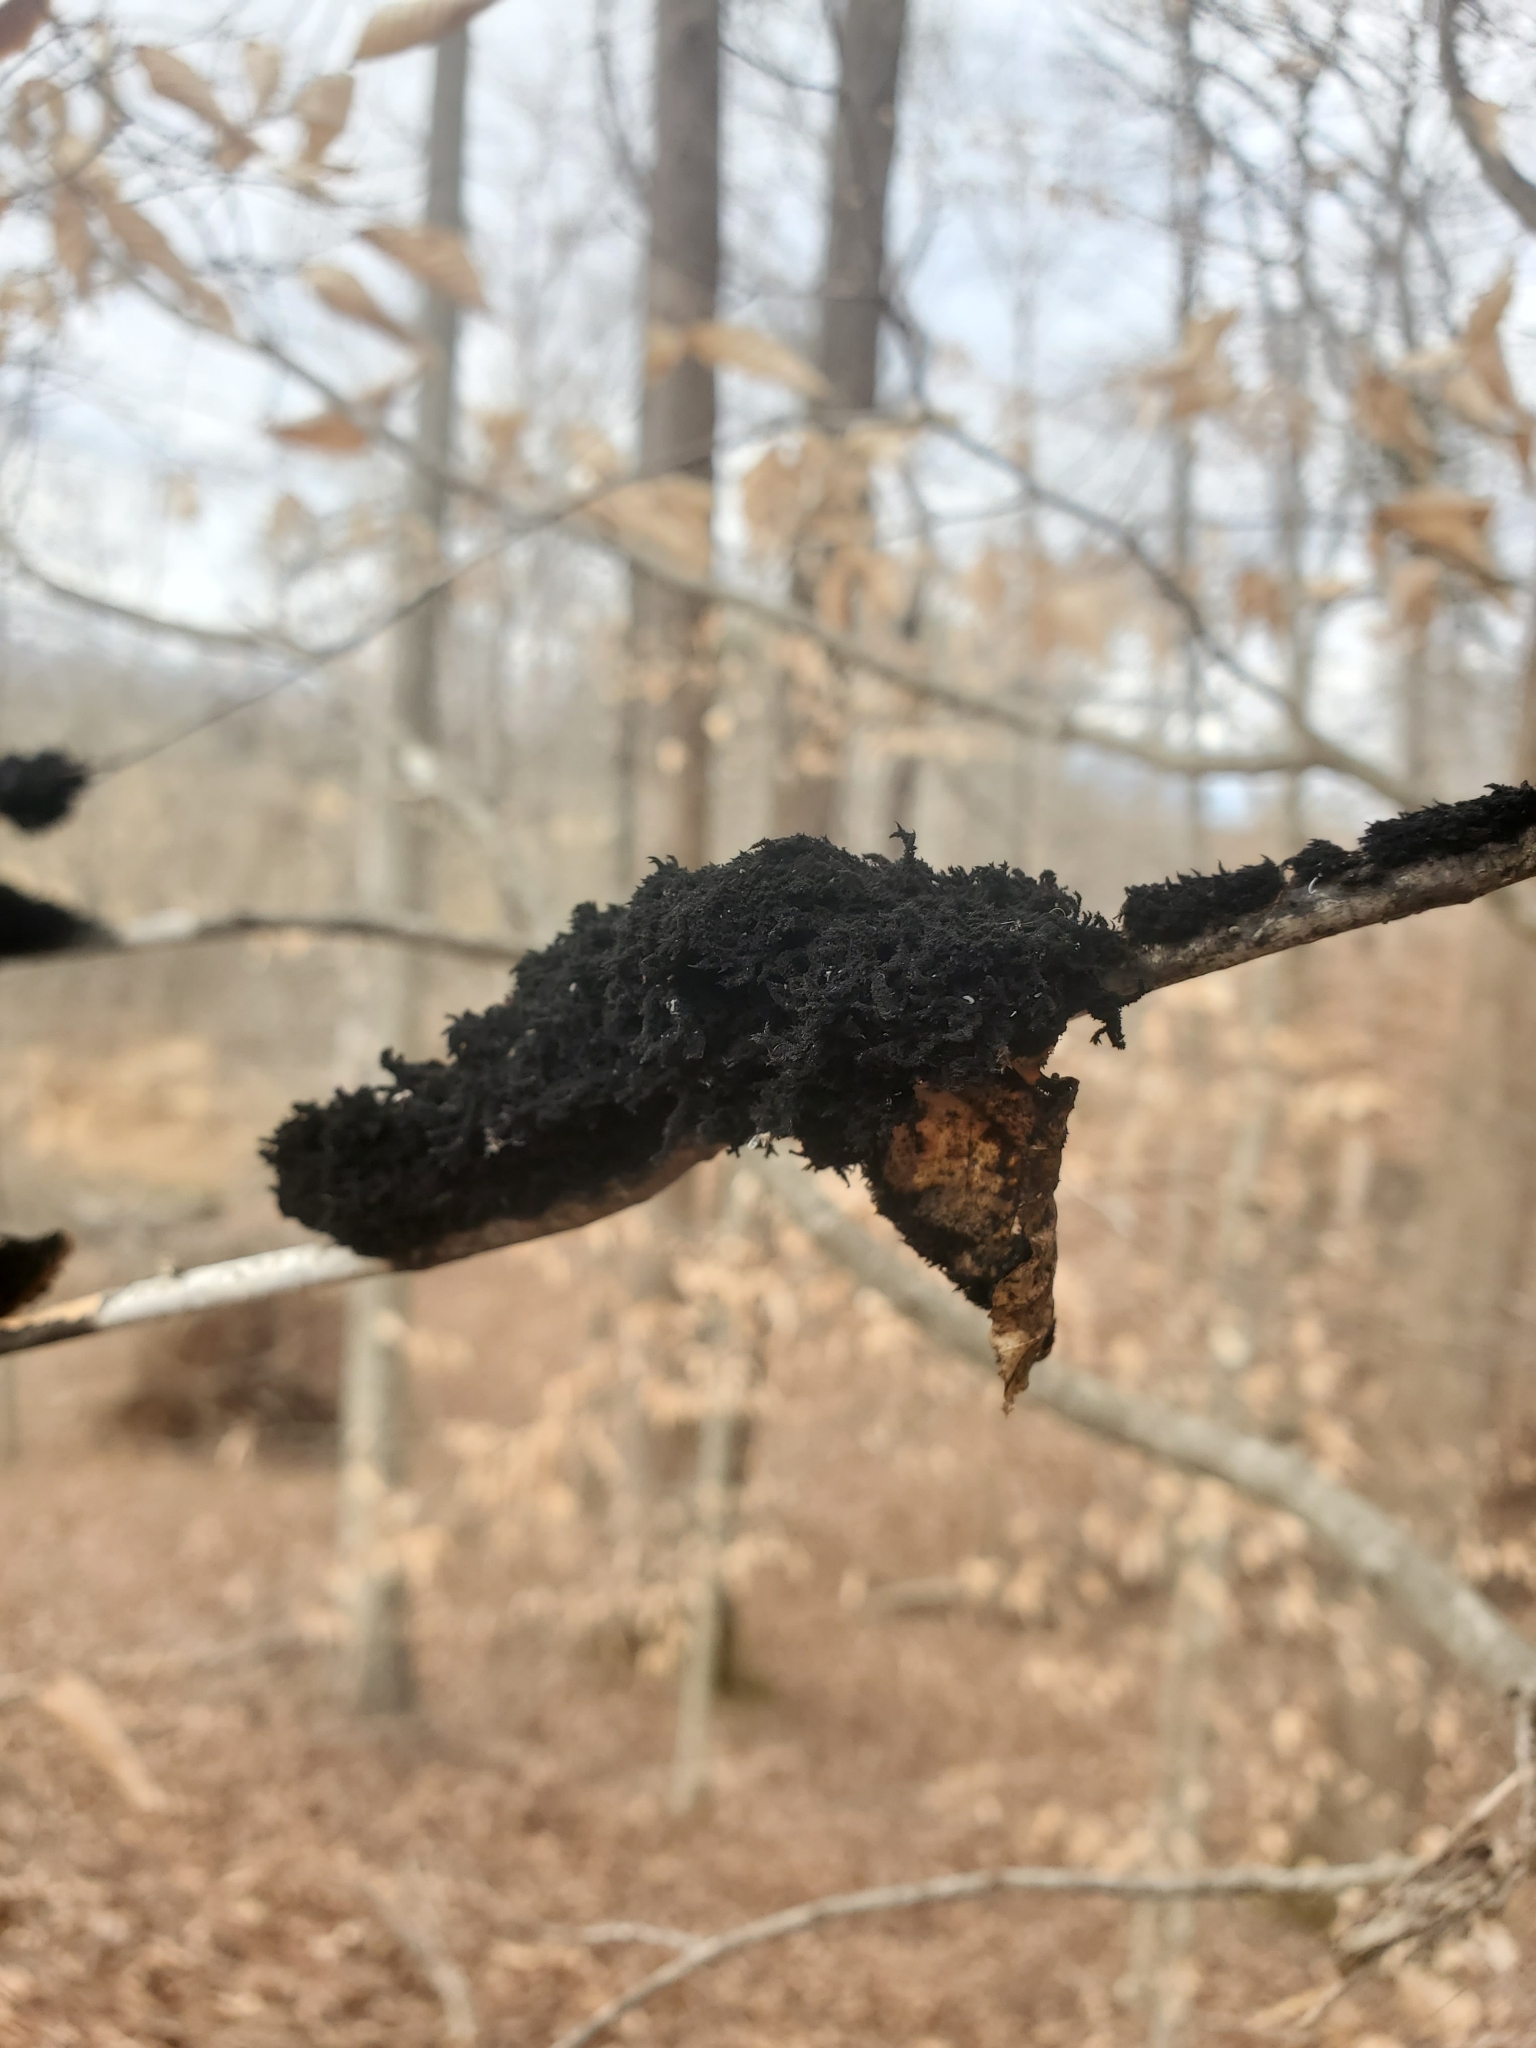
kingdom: Fungi
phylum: Ascomycota
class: Dothideomycetes
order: Capnodiales
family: Capnodiaceae
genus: Scorias
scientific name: Scorias spongiosa
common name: Black sooty mold
